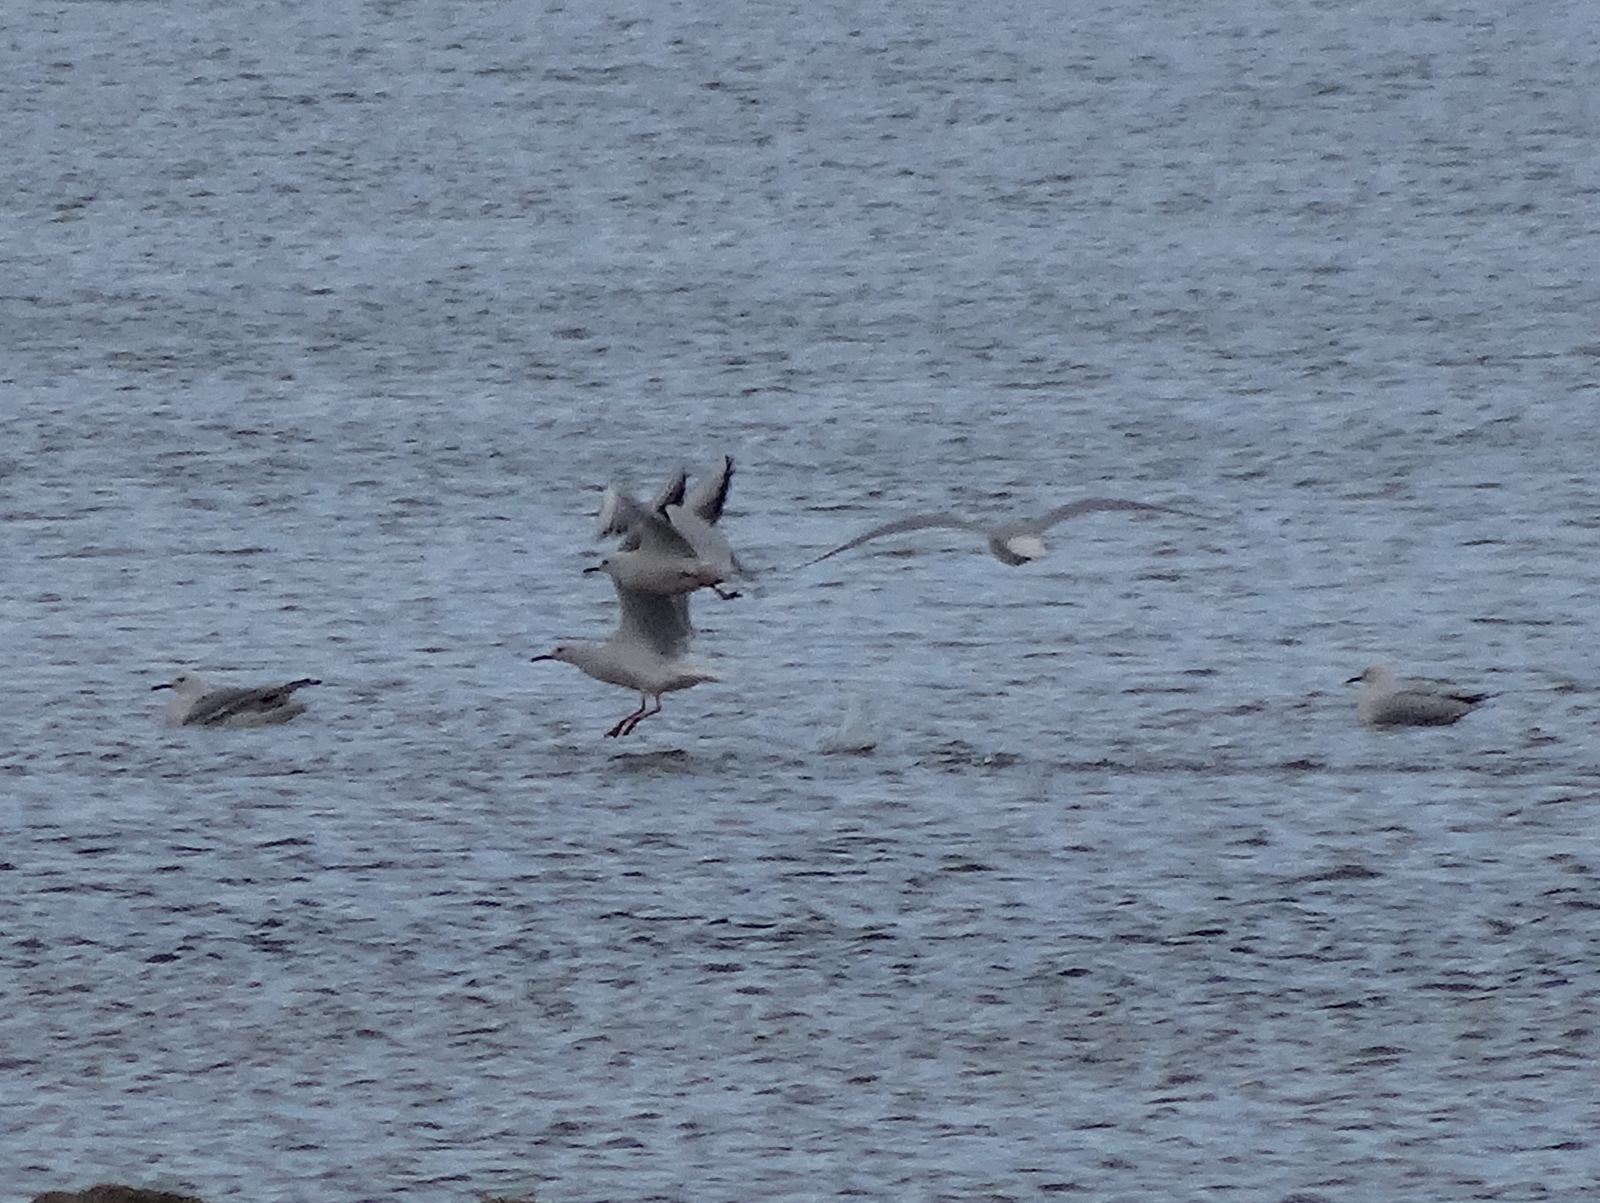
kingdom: Animalia
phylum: Chordata
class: Aves
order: Charadriiformes
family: Laridae
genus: Chroicocephalus
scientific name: Chroicocephalus genei
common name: Slender-billed gull
